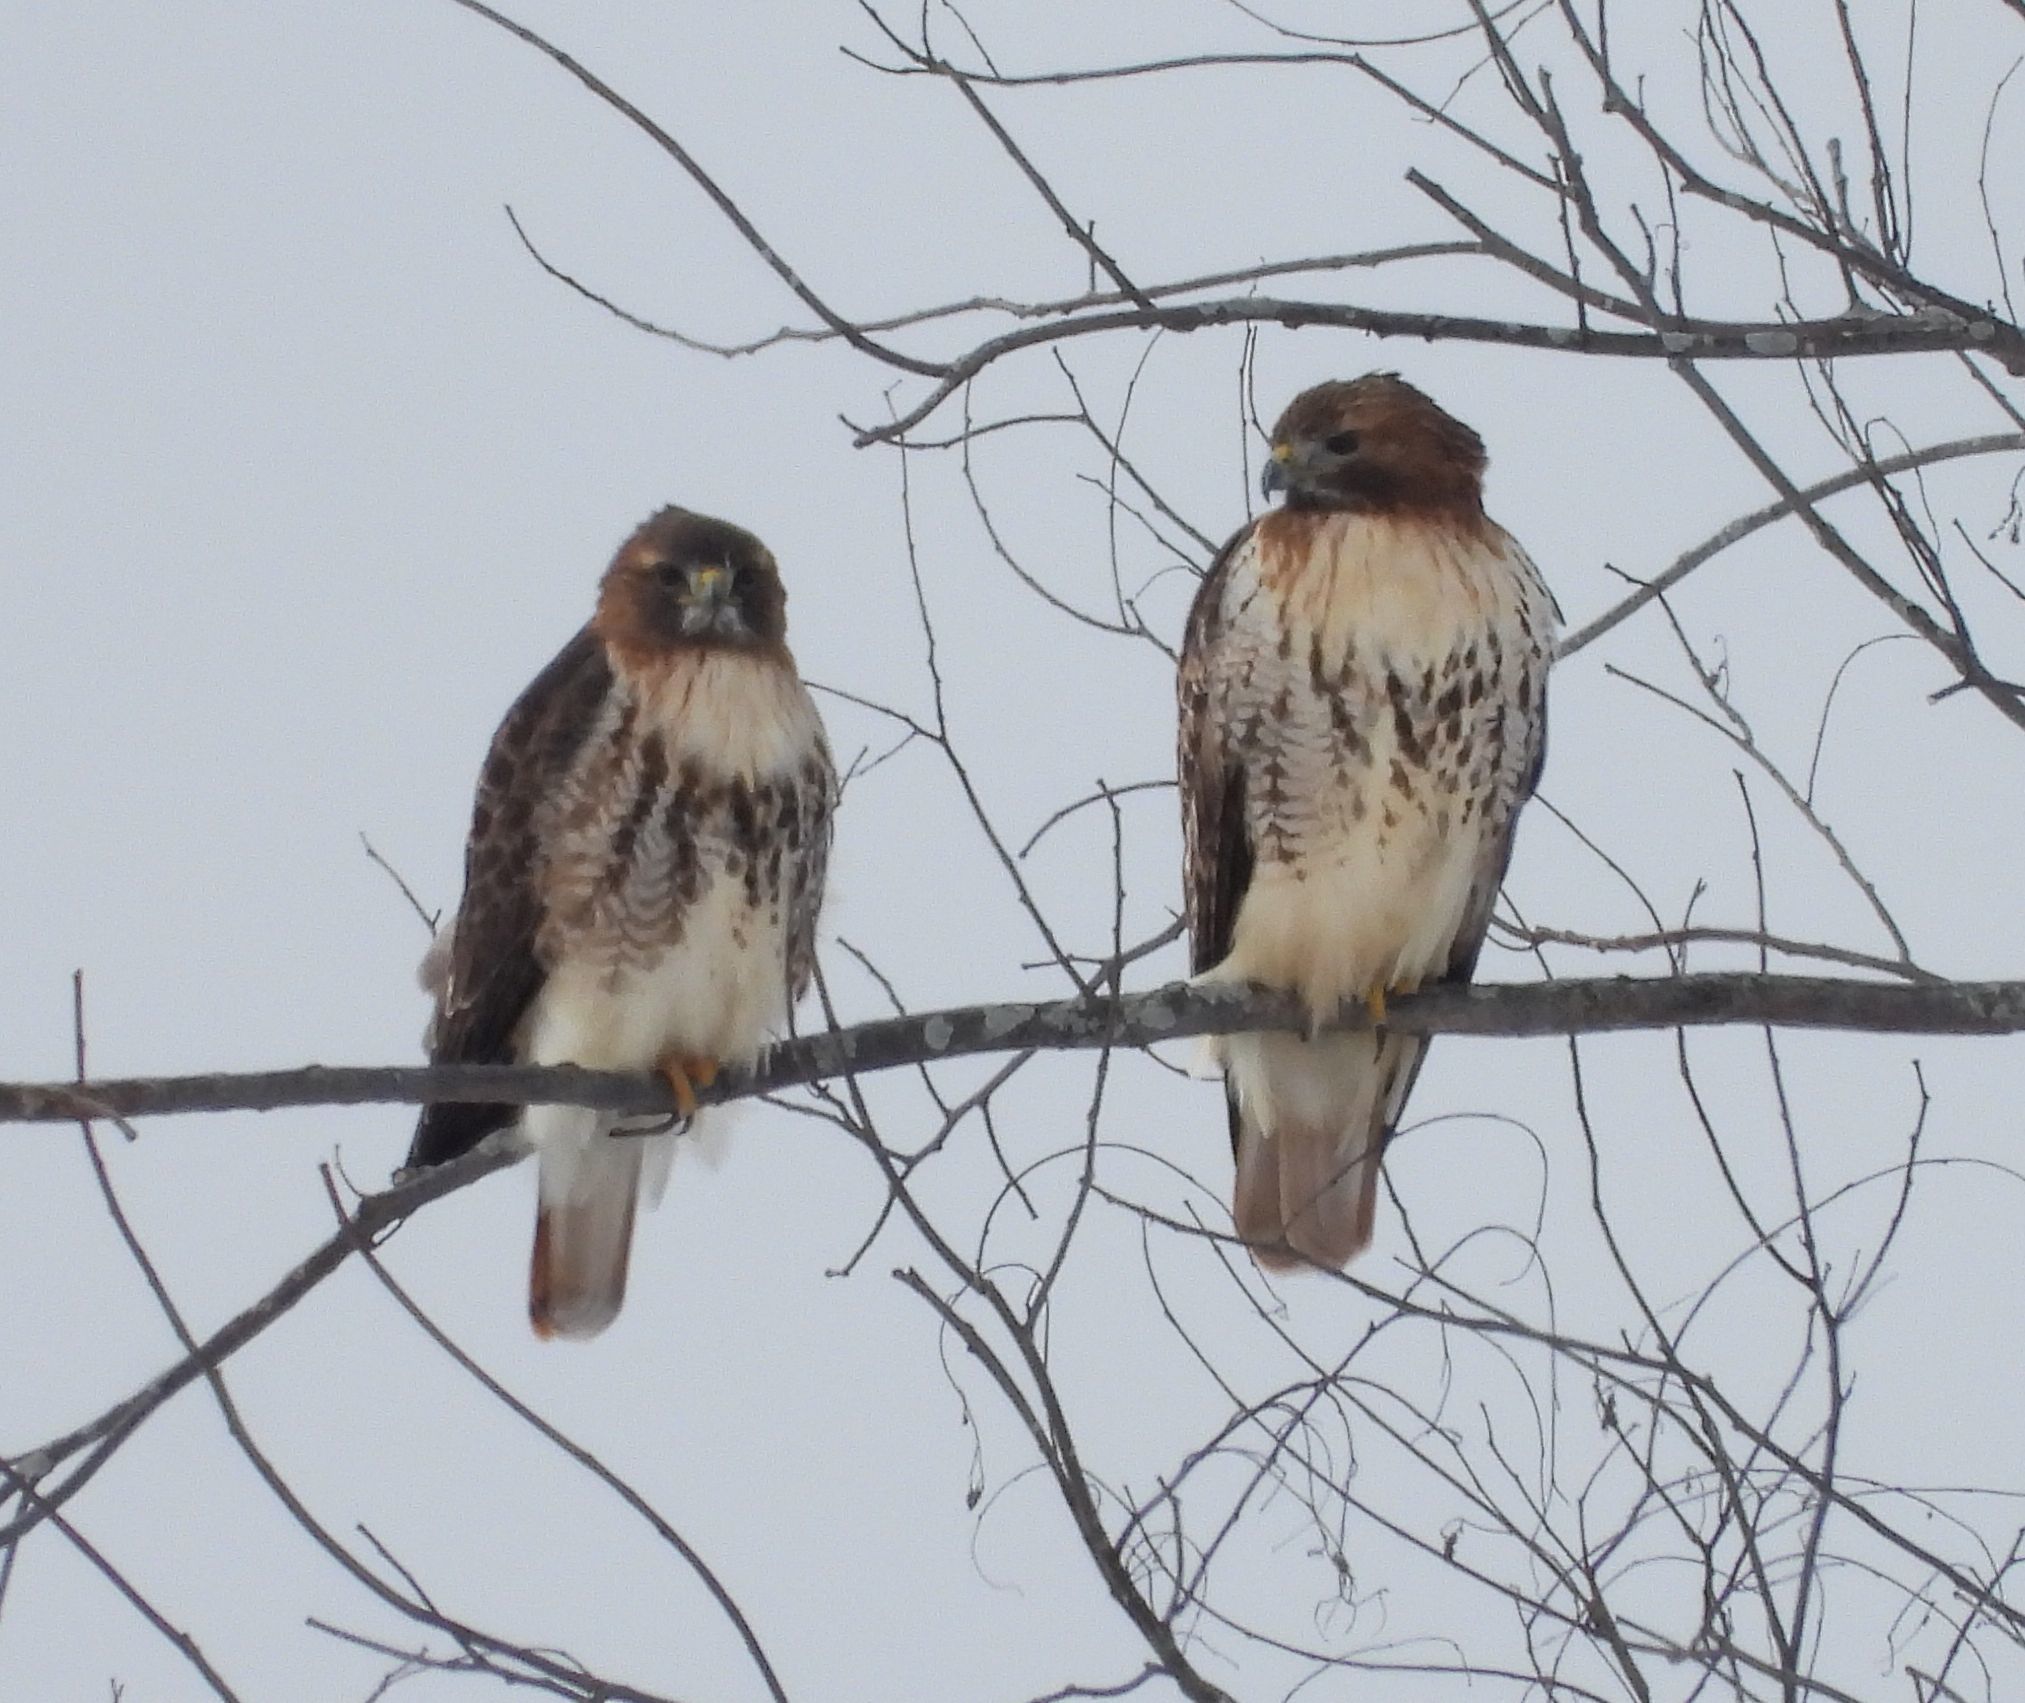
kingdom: Animalia
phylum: Chordata
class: Aves
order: Accipitriformes
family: Accipitridae
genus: Buteo
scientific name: Buteo jamaicensis
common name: Red-tailed hawk
